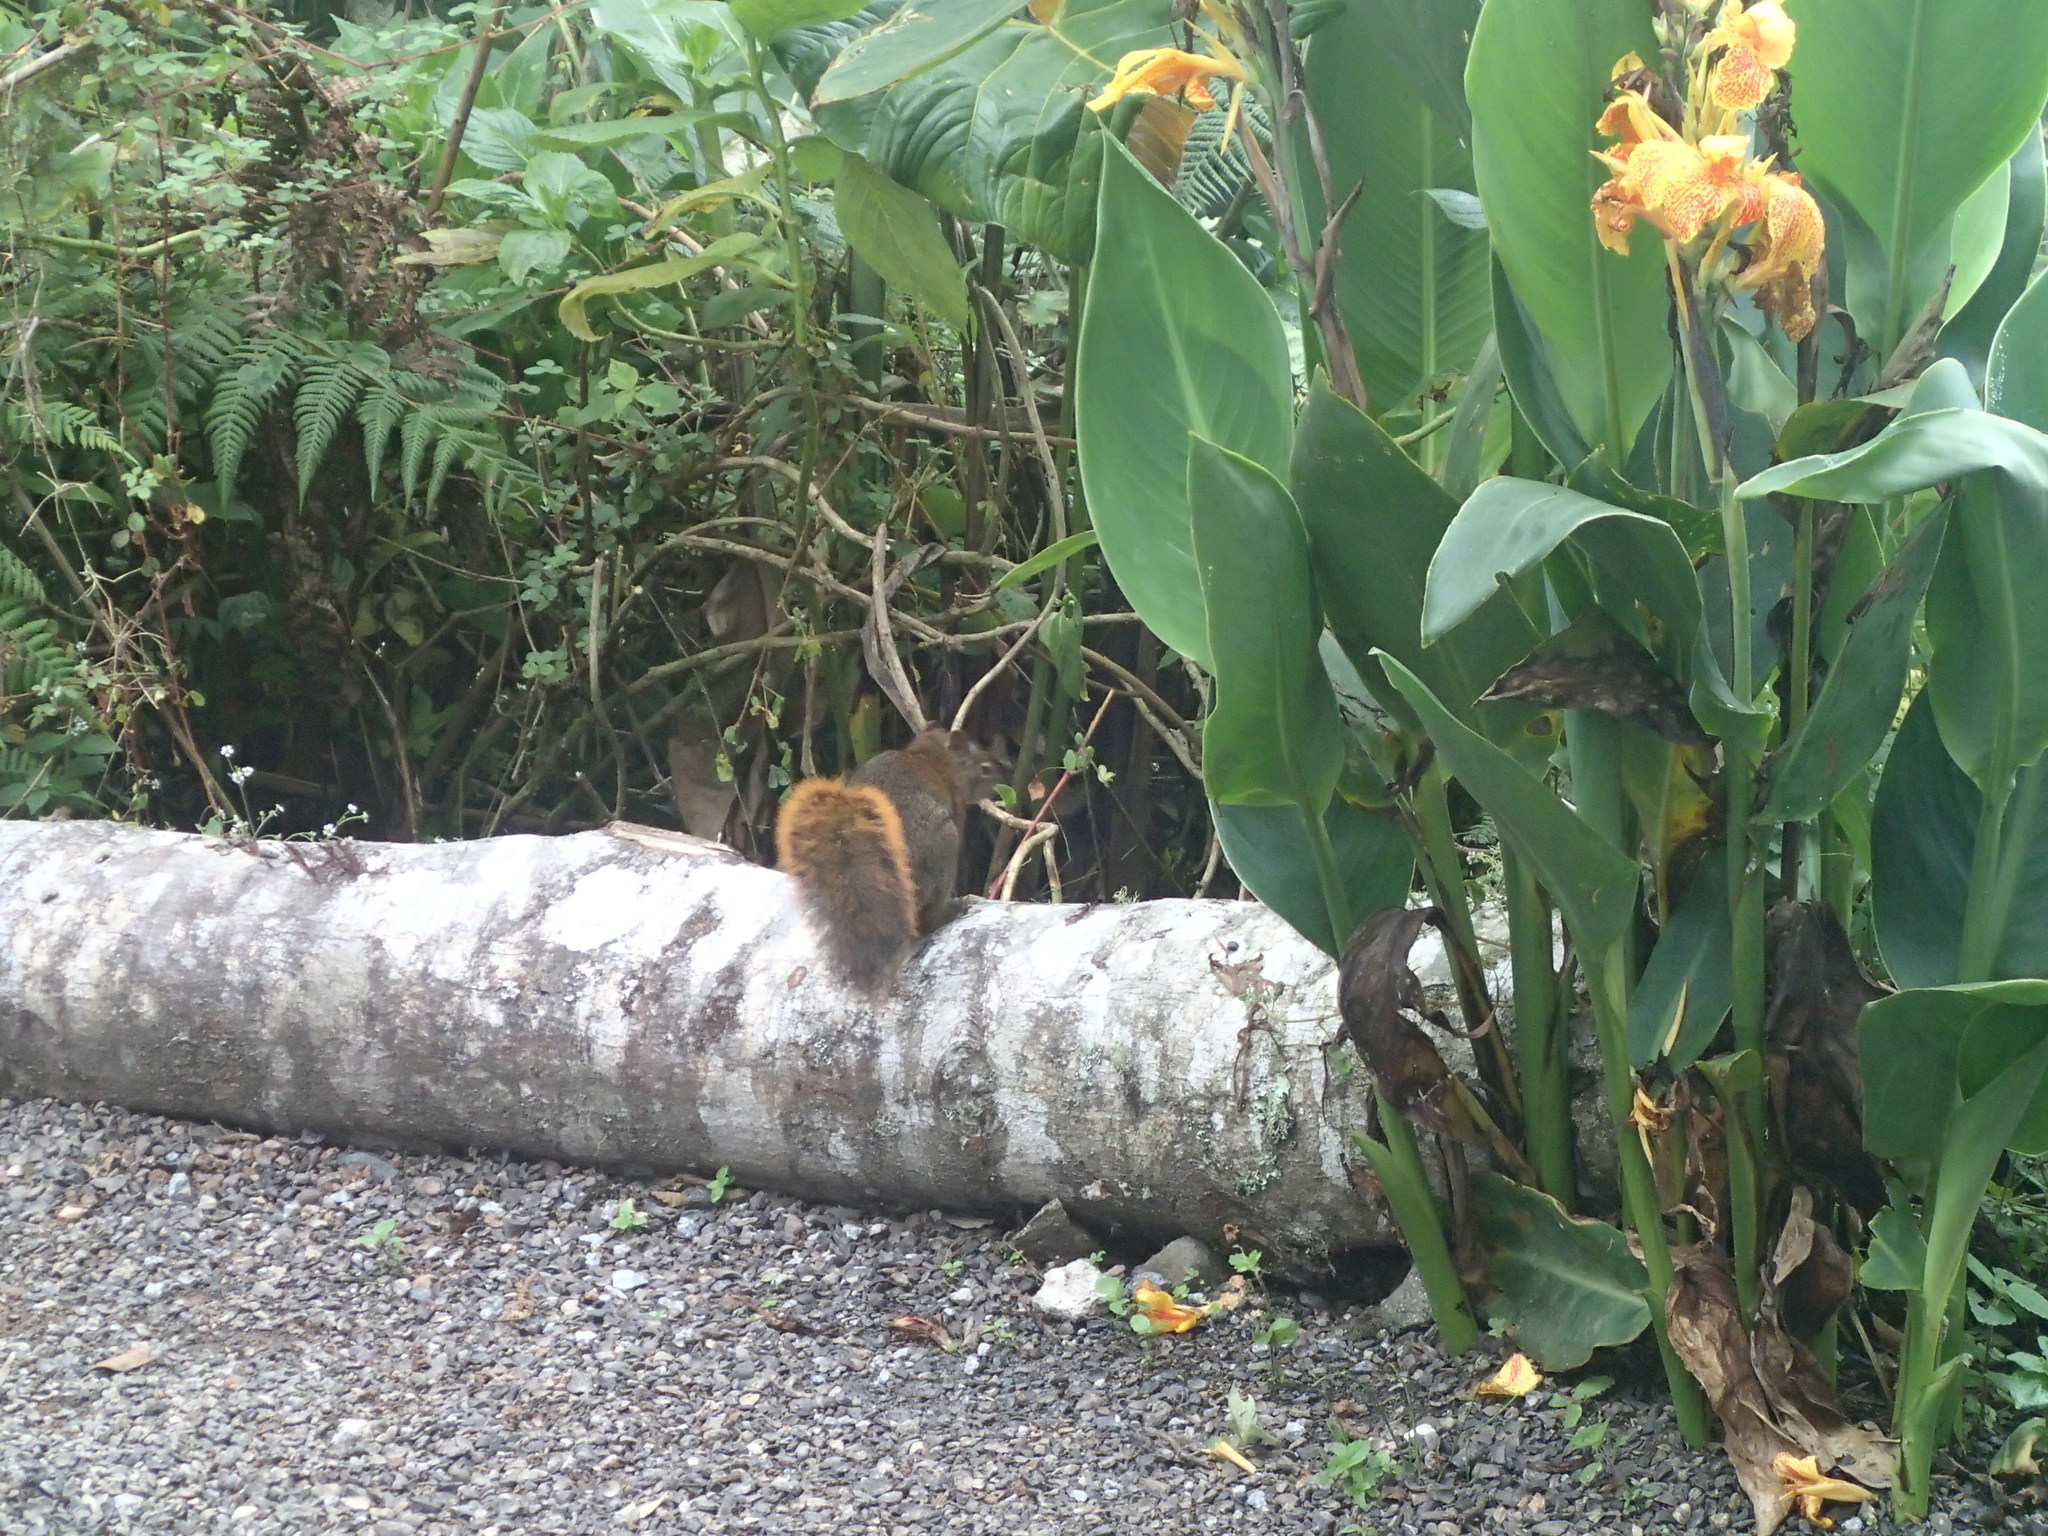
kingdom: Animalia
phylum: Chordata
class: Mammalia
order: Rodentia
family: Sciuridae
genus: Sciurus
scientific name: Sciurus granatensis
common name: Red-tailed squirrel
